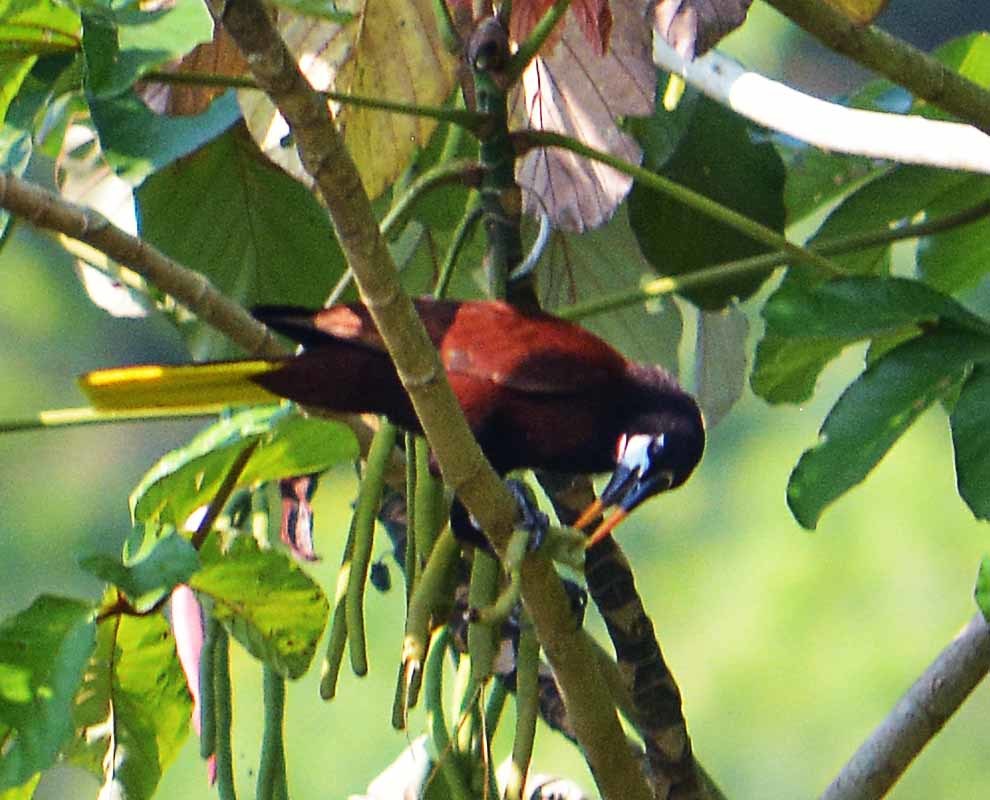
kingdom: Animalia
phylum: Chordata
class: Aves
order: Passeriformes
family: Icteridae
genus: Psarocolius
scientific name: Psarocolius montezuma
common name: Montezuma oropendola
